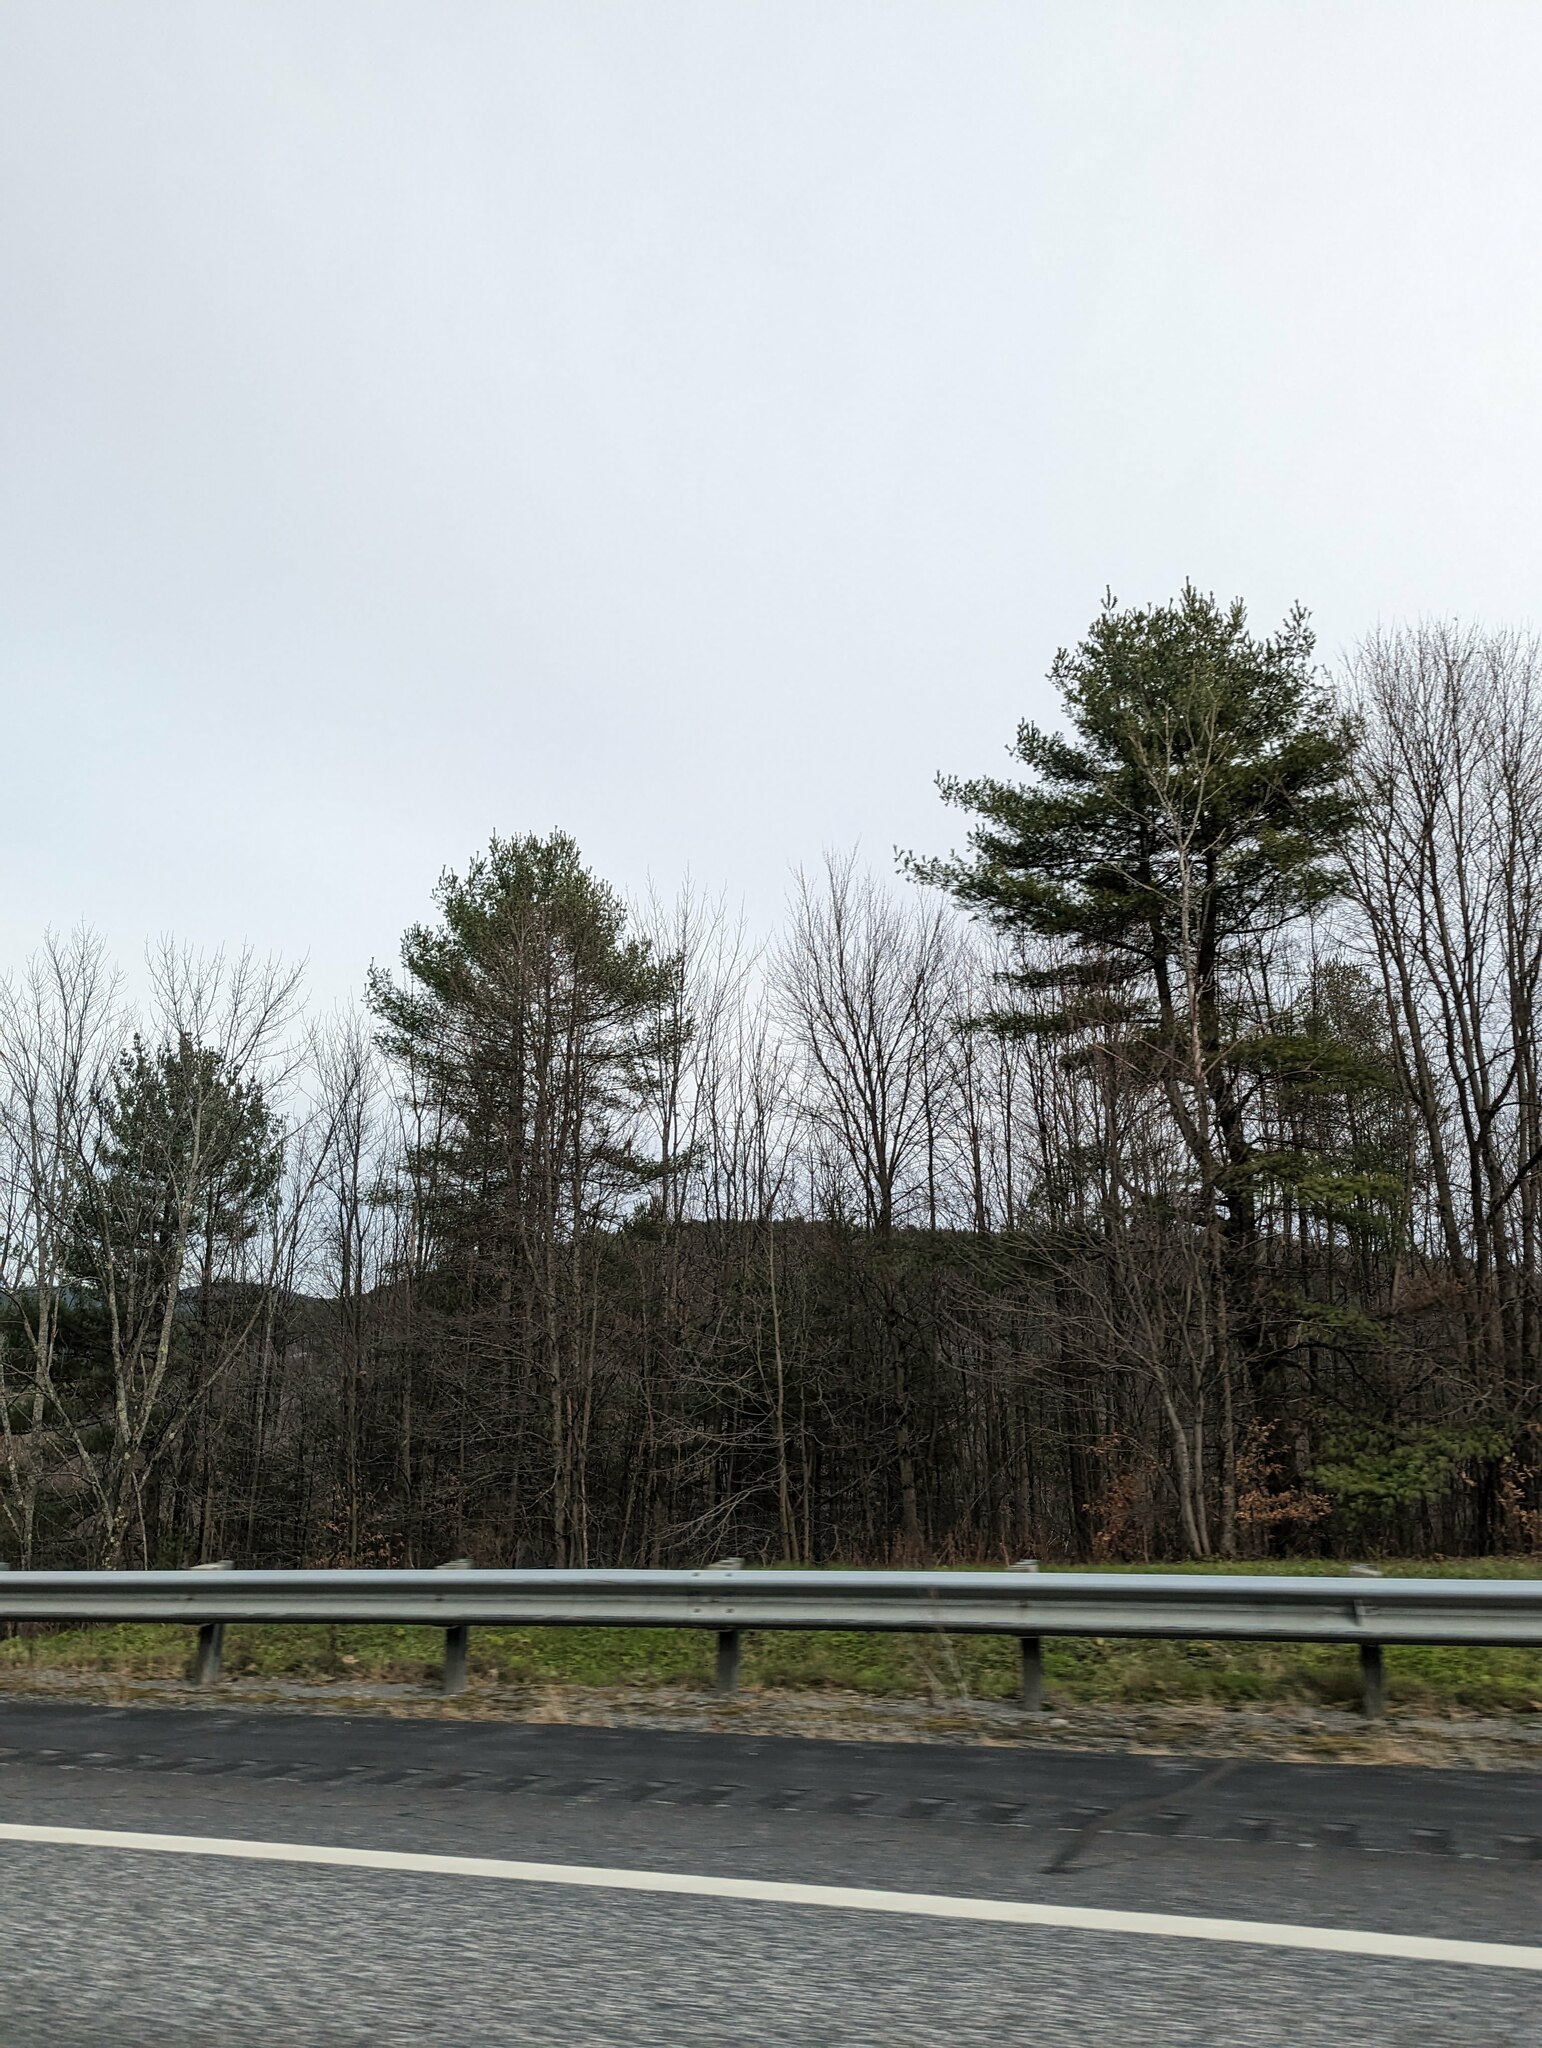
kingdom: Plantae
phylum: Tracheophyta
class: Pinopsida
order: Pinales
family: Pinaceae
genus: Pinus
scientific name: Pinus strobus
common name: Weymouth pine
